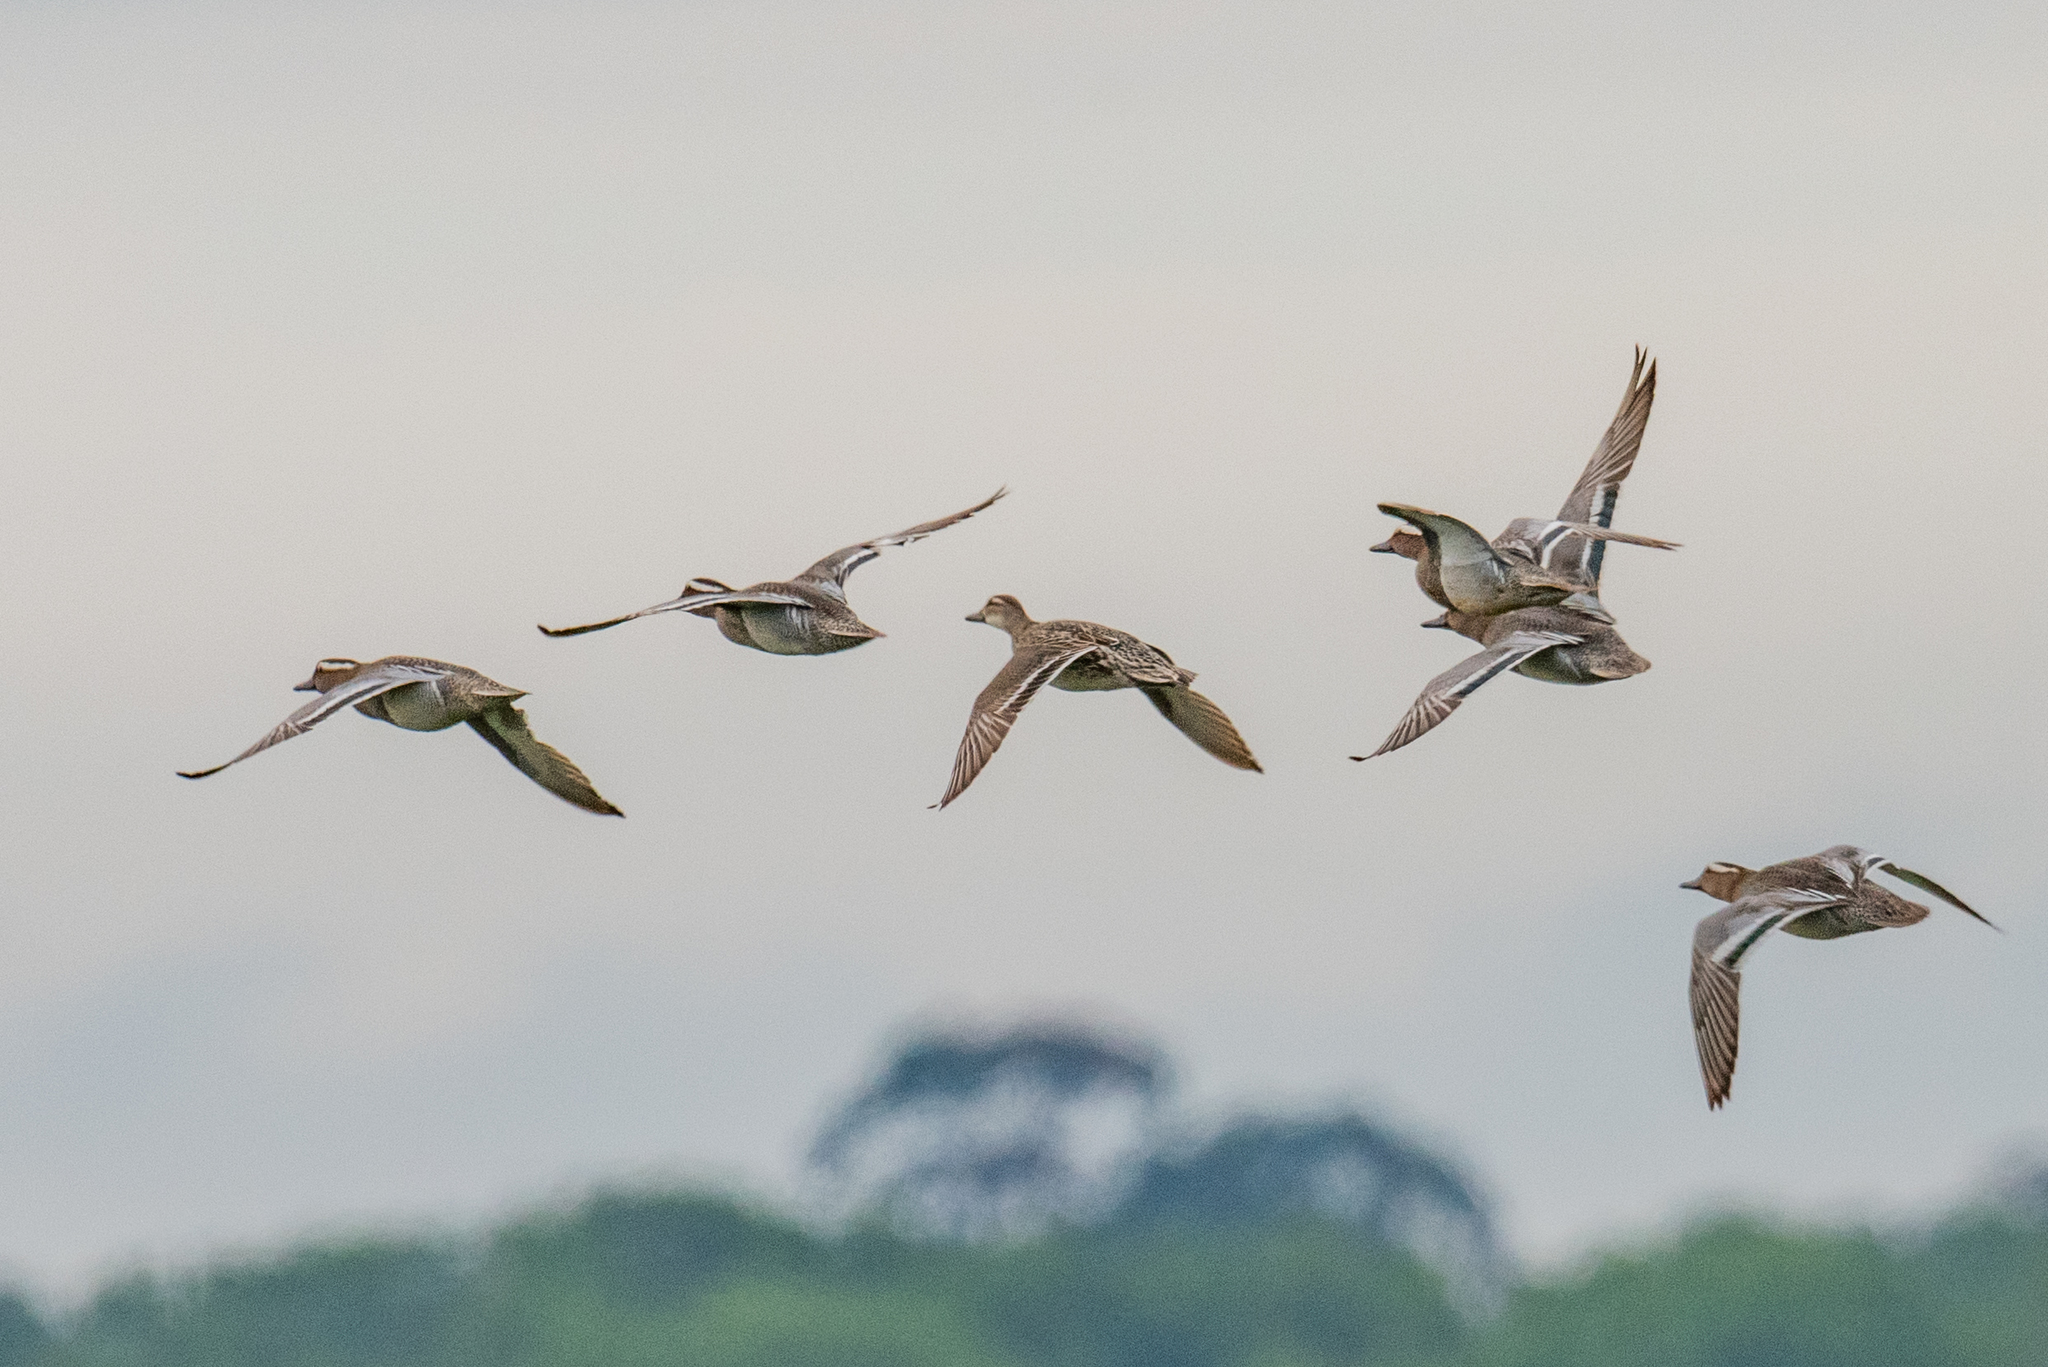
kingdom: Animalia
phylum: Chordata
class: Aves
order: Anseriformes
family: Anatidae
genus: Spatula
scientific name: Spatula querquedula
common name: Garganey
